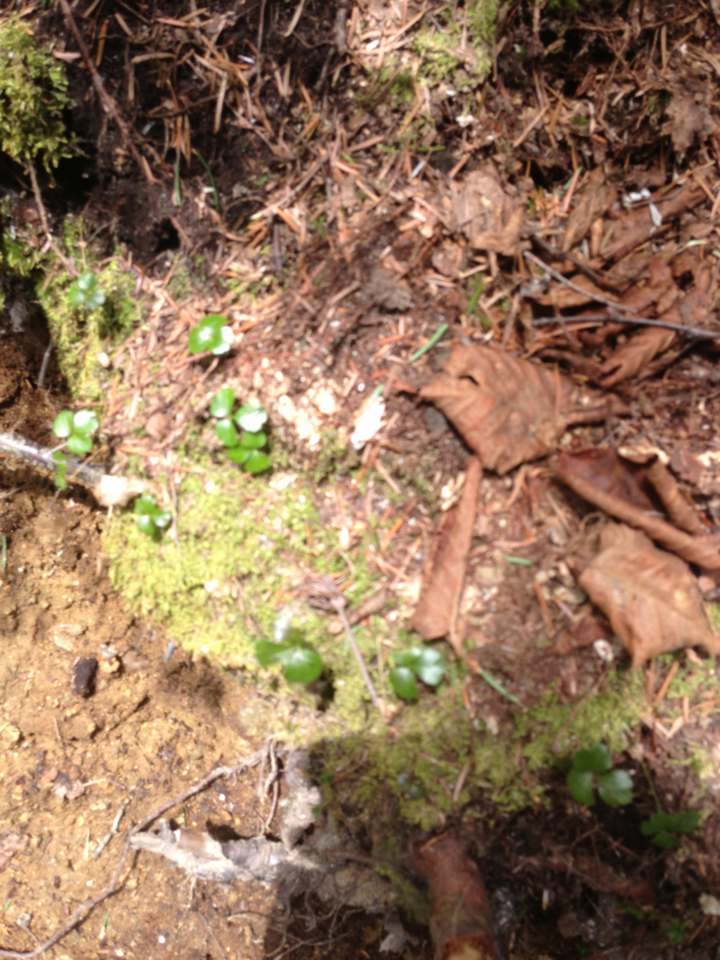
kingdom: Plantae
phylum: Tracheophyta
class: Magnoliopsida
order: Ranunculales
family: Ranunculaceae
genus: Coptis
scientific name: Coptis trifolia
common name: Canker-root
